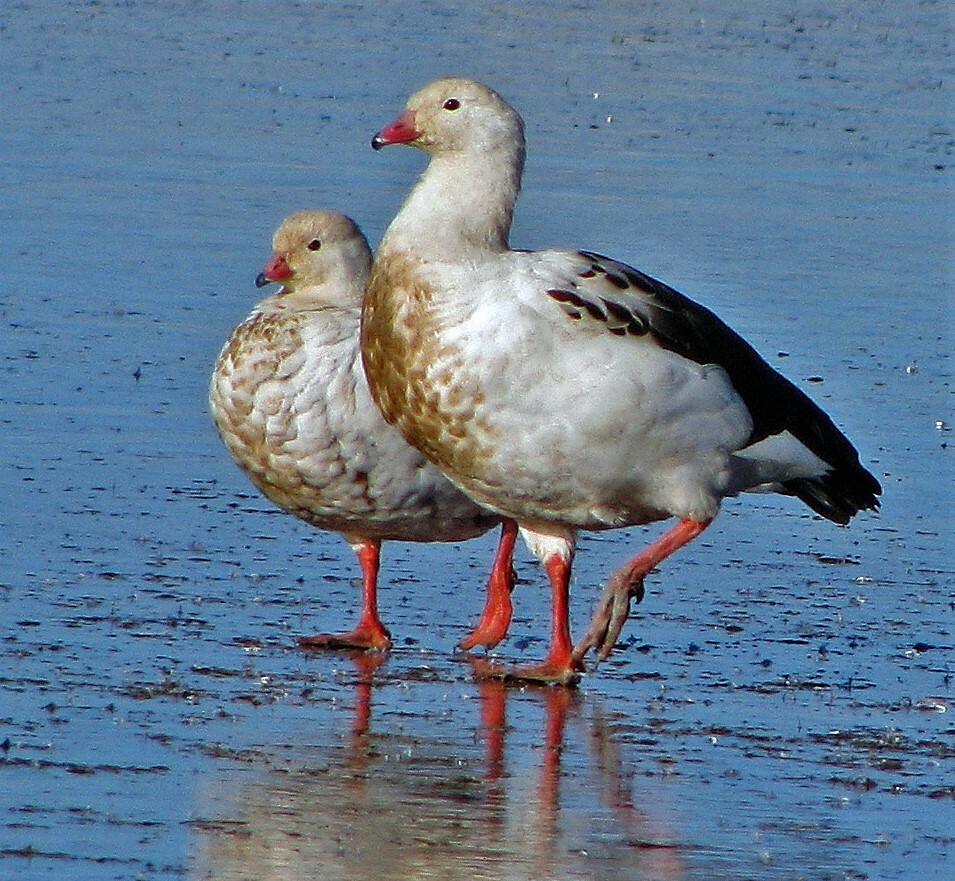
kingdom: Animalia
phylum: Chordata
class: Aves
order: Anseriformes
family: Anatidae
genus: Chloephaga
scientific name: Chloephaga melanoptera
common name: Andean goose
